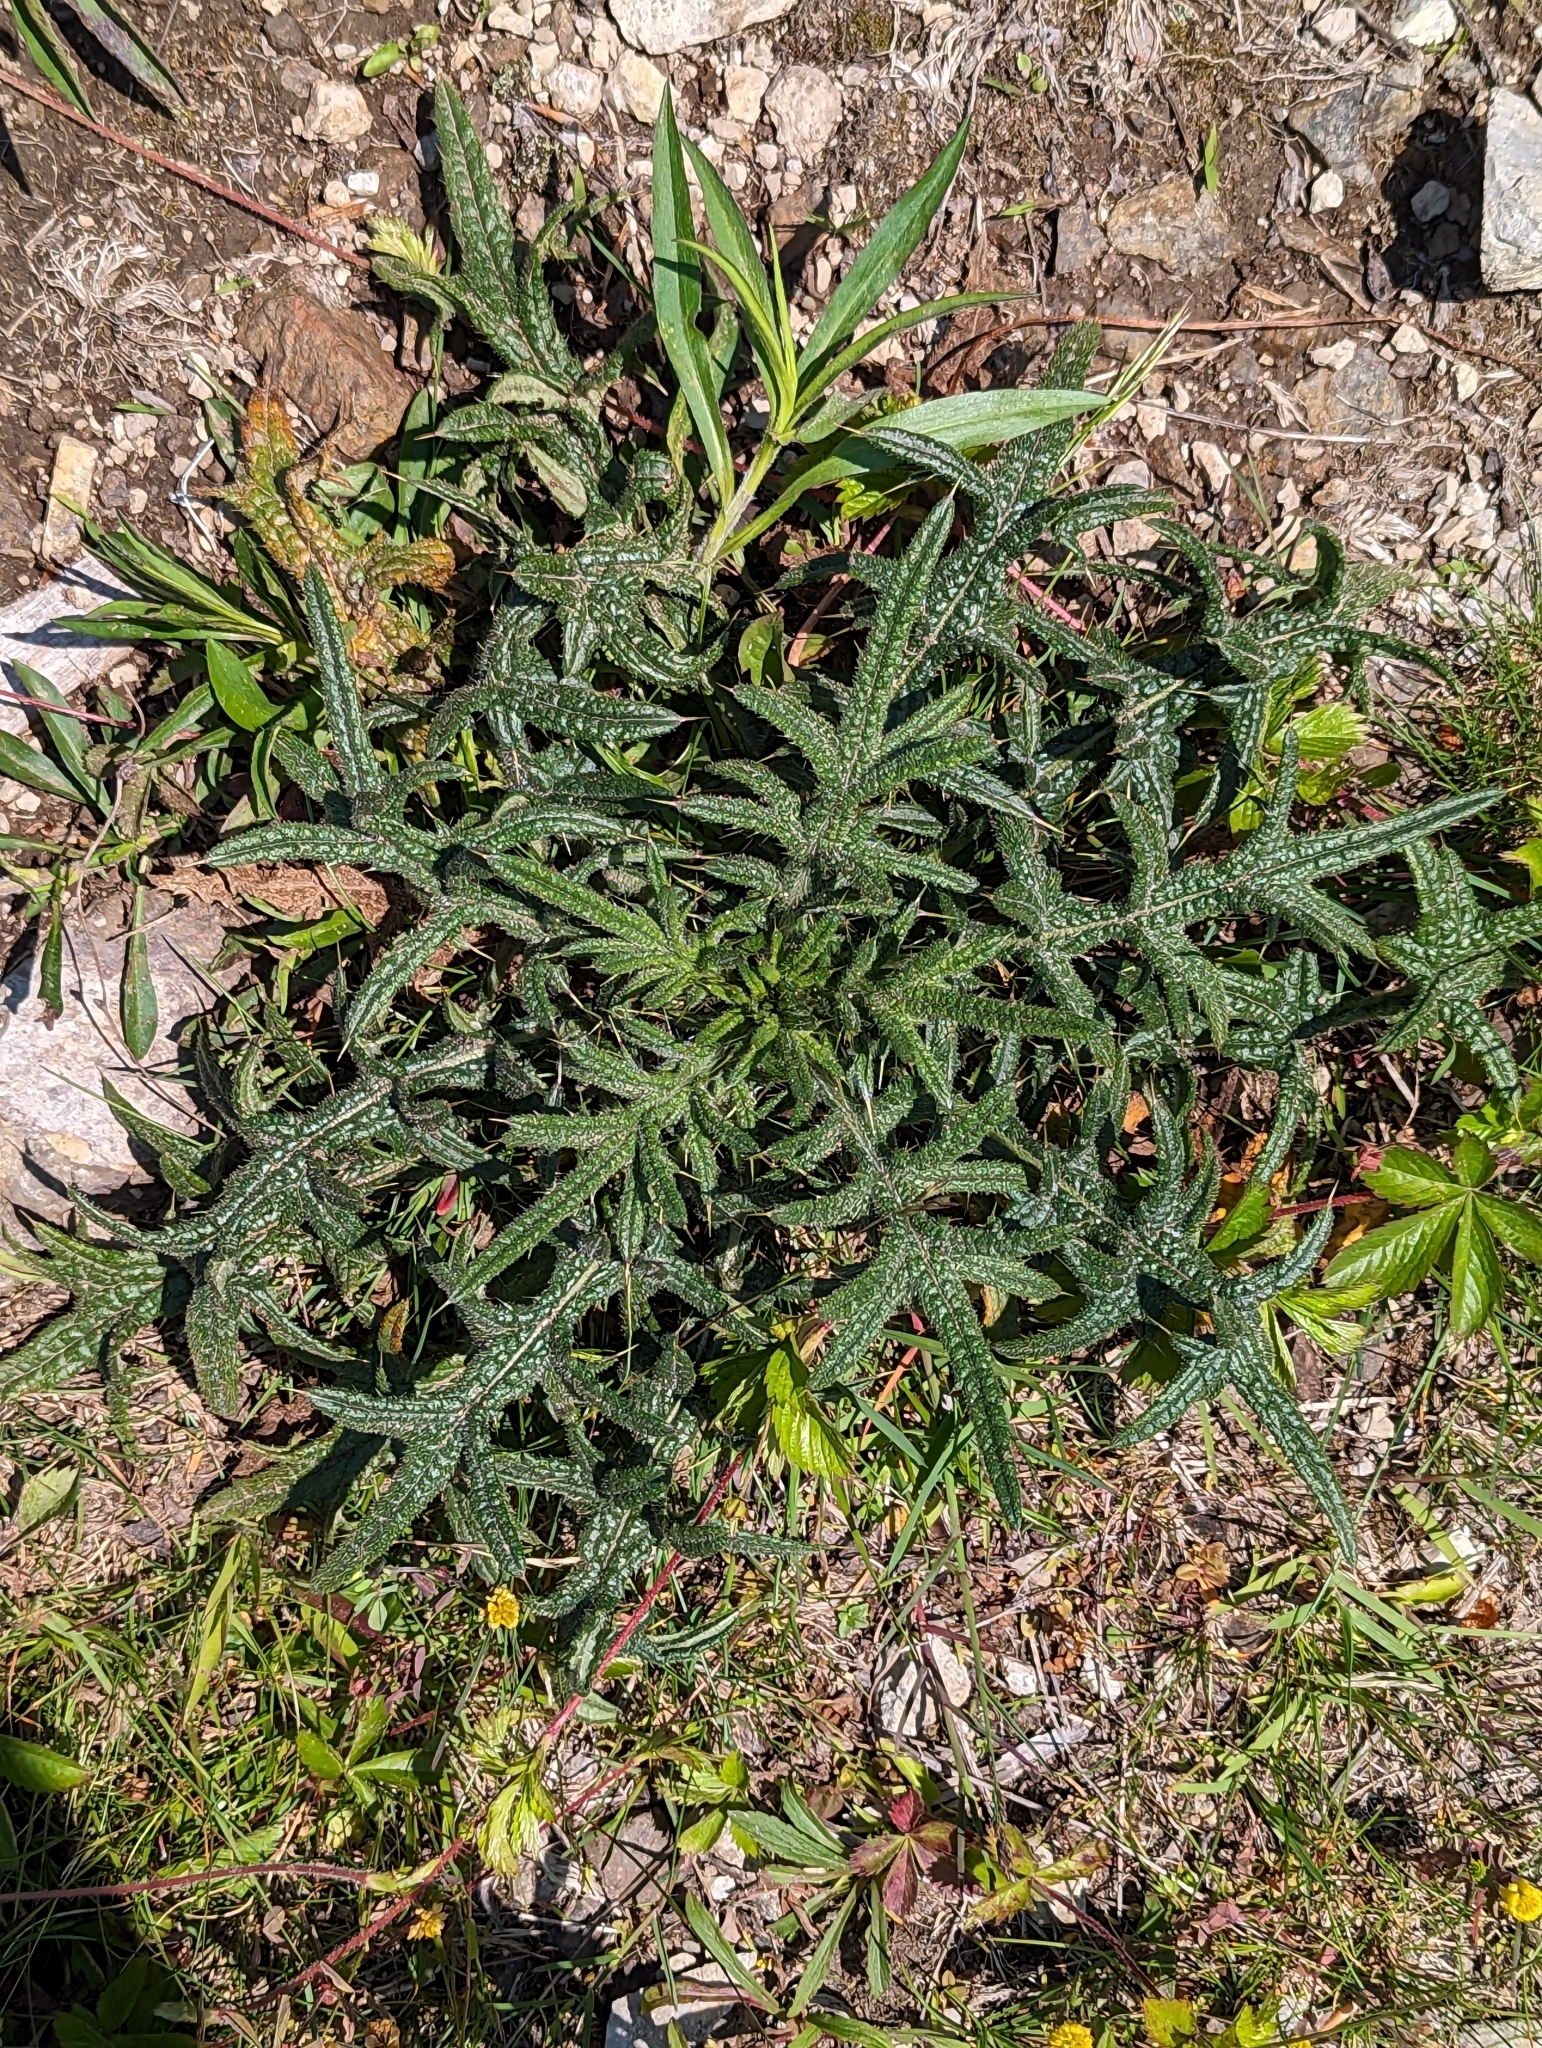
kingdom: Plantae
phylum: Tracheophyta
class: Magnoliopsida
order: Asterales
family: Asteraceae
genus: Cirsium
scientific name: Cirsium vulgare
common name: Bull thistle
